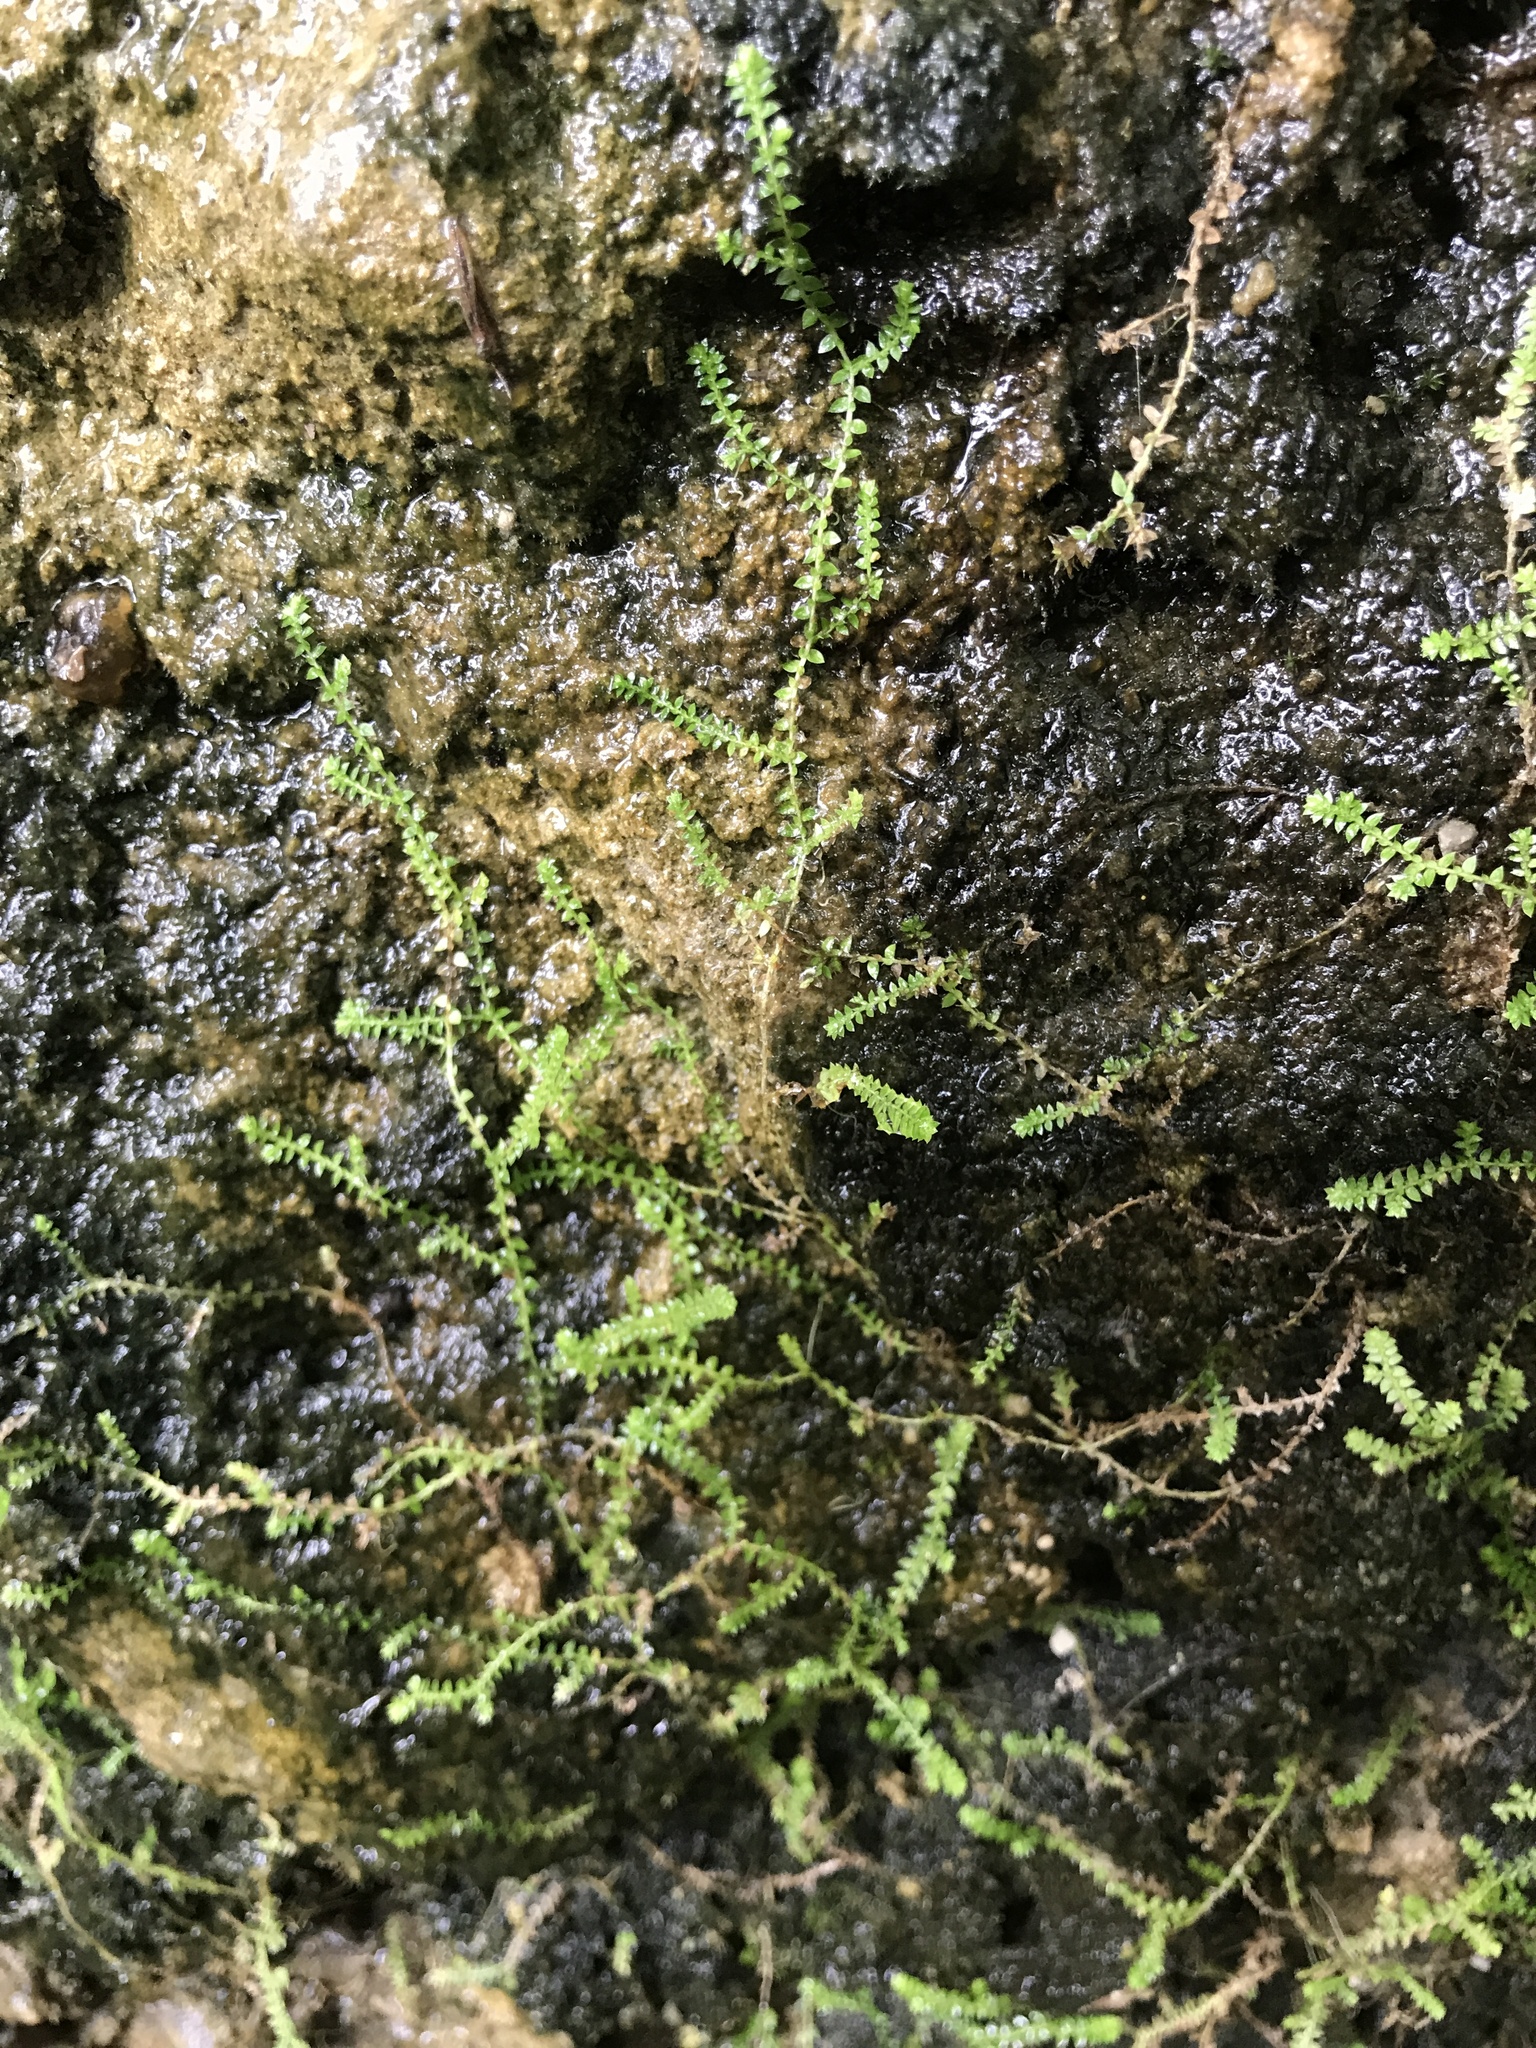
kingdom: Plantae
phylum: Tracheophyta
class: Lycopodiopsida
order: Selaginellales
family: Selaginellaceae
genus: Selaginella
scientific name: Selaginella eclipes
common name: Buck's meadow spikemoss
